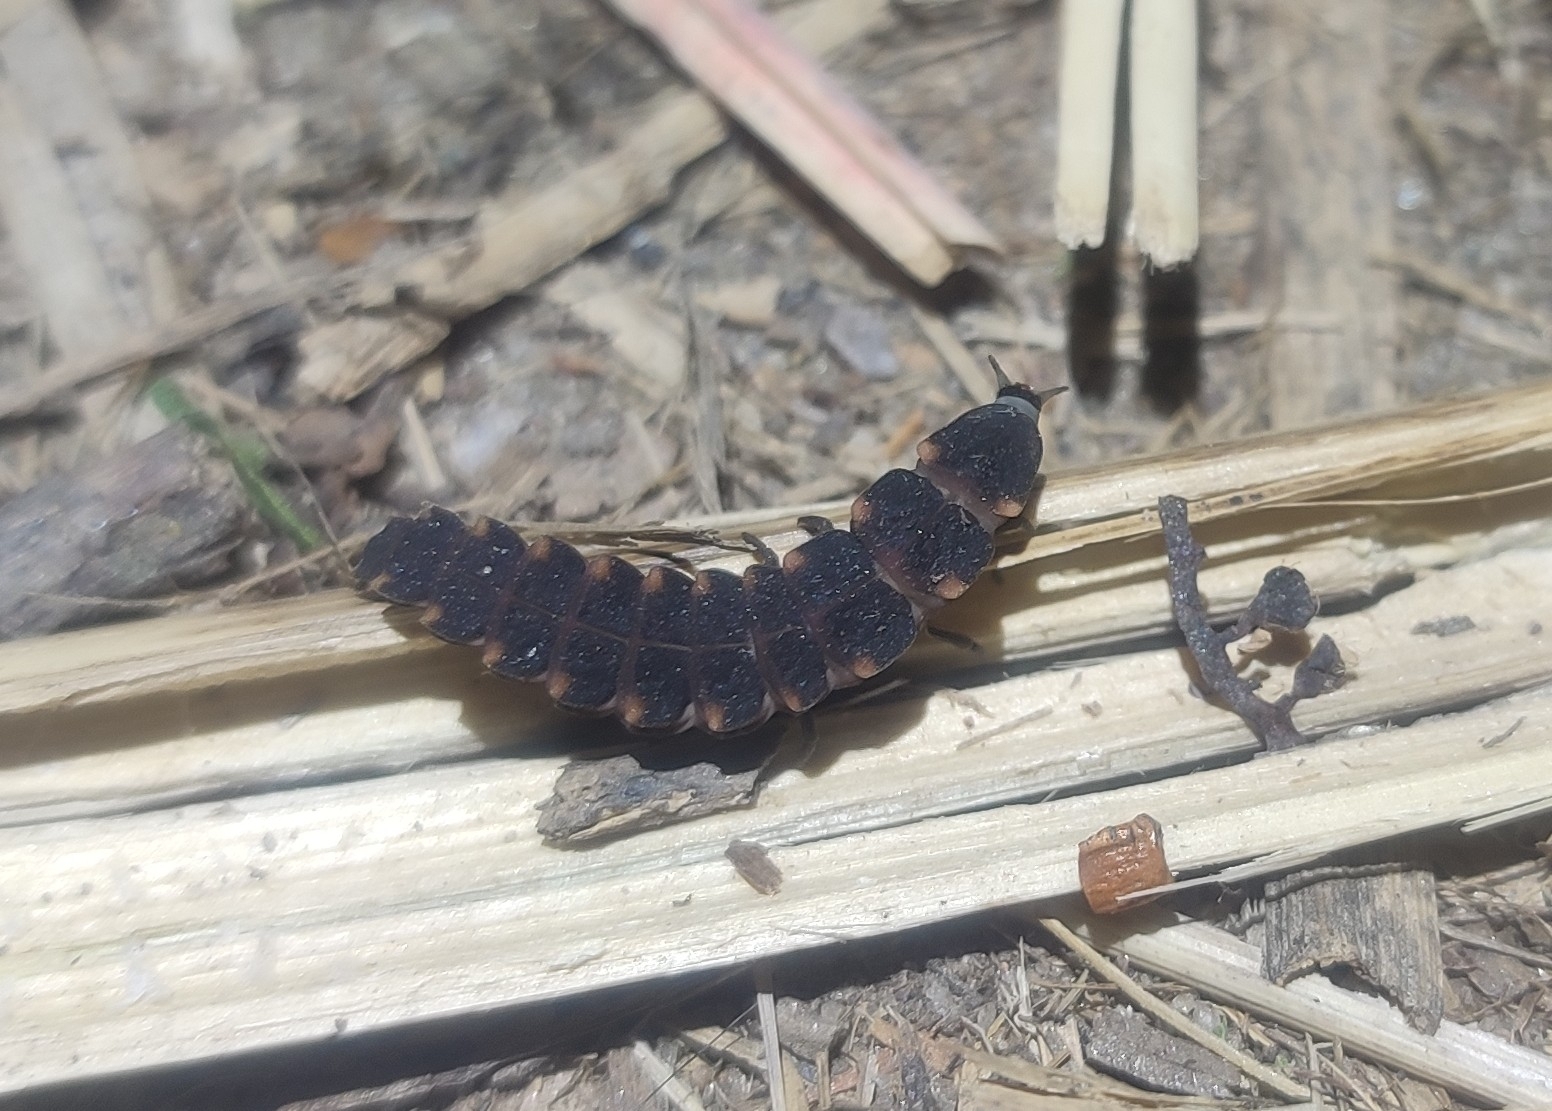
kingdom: Animalia
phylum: Arthropoda
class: Insecta
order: Coleoptera
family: Lampyridae
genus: Lampyris
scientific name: Lampyris noctiluca
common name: Glow-worm
